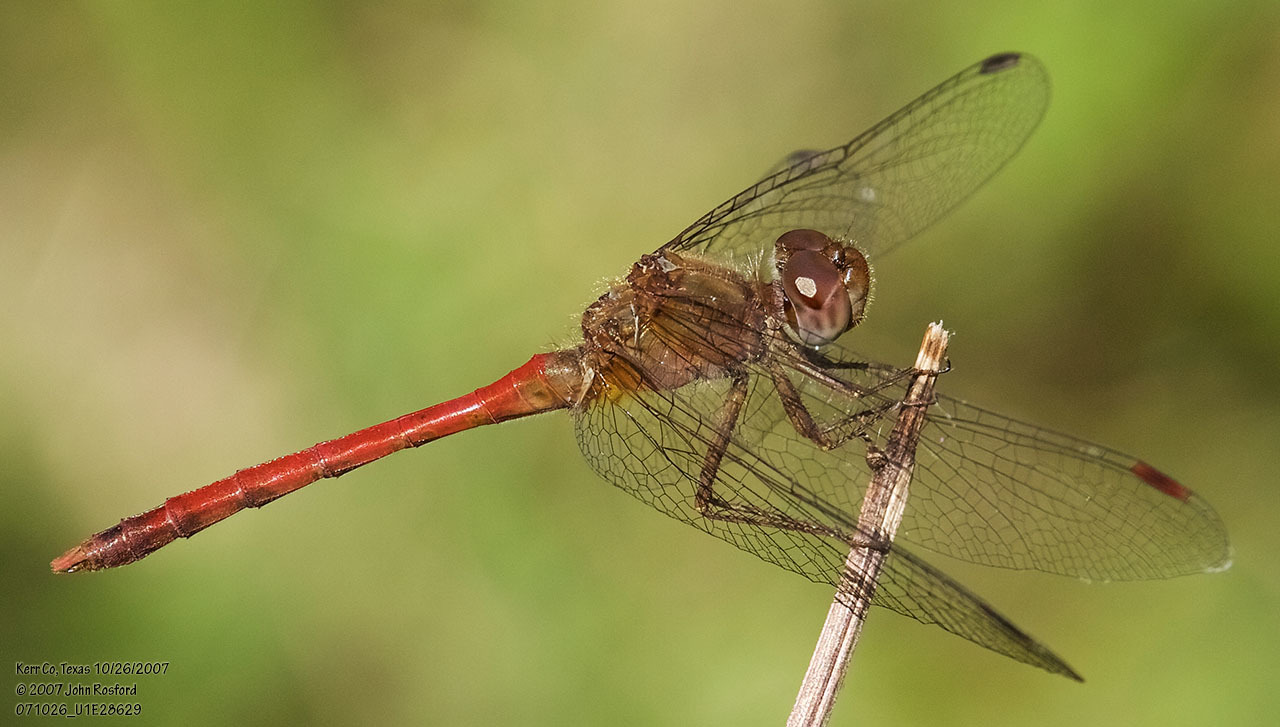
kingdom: Animalia
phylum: Arthropoda
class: Insecta
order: Odonata
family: Libellulidae
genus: Sympetrum
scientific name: Sympetrum vicinum
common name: Autumn meadowhawk
